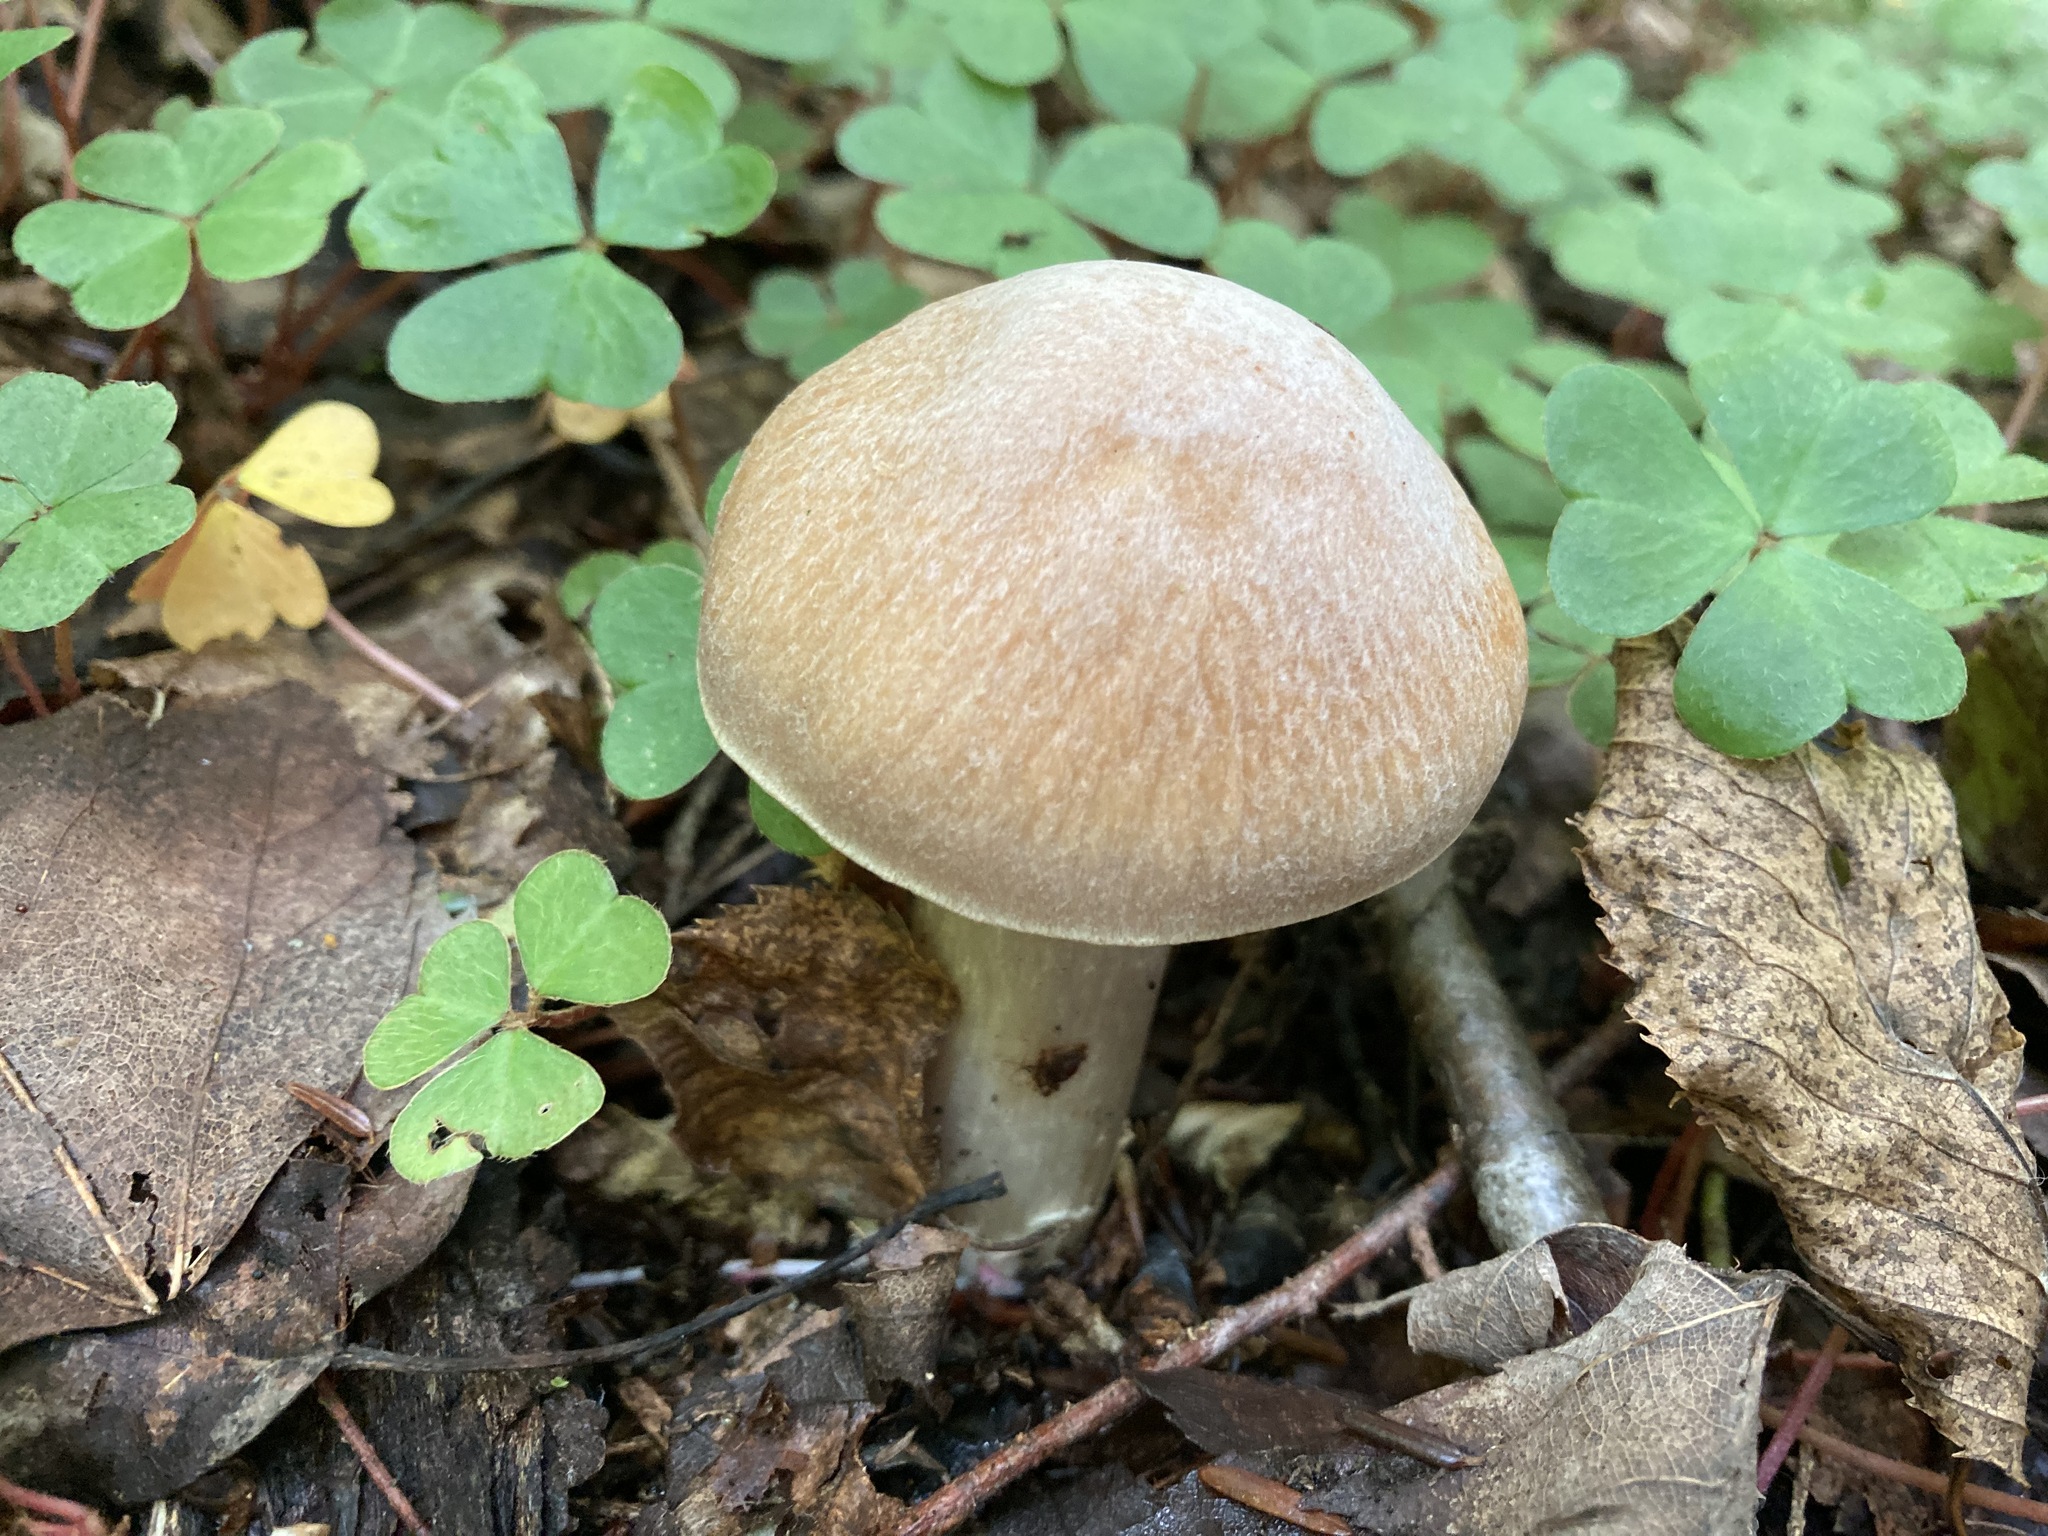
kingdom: Fungi
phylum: Basidiomycota
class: Agaricomycetes
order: Agaricales
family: Cortinariaceae
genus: Cortinarius
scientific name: Cortinarius caperatus
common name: The gypsy
